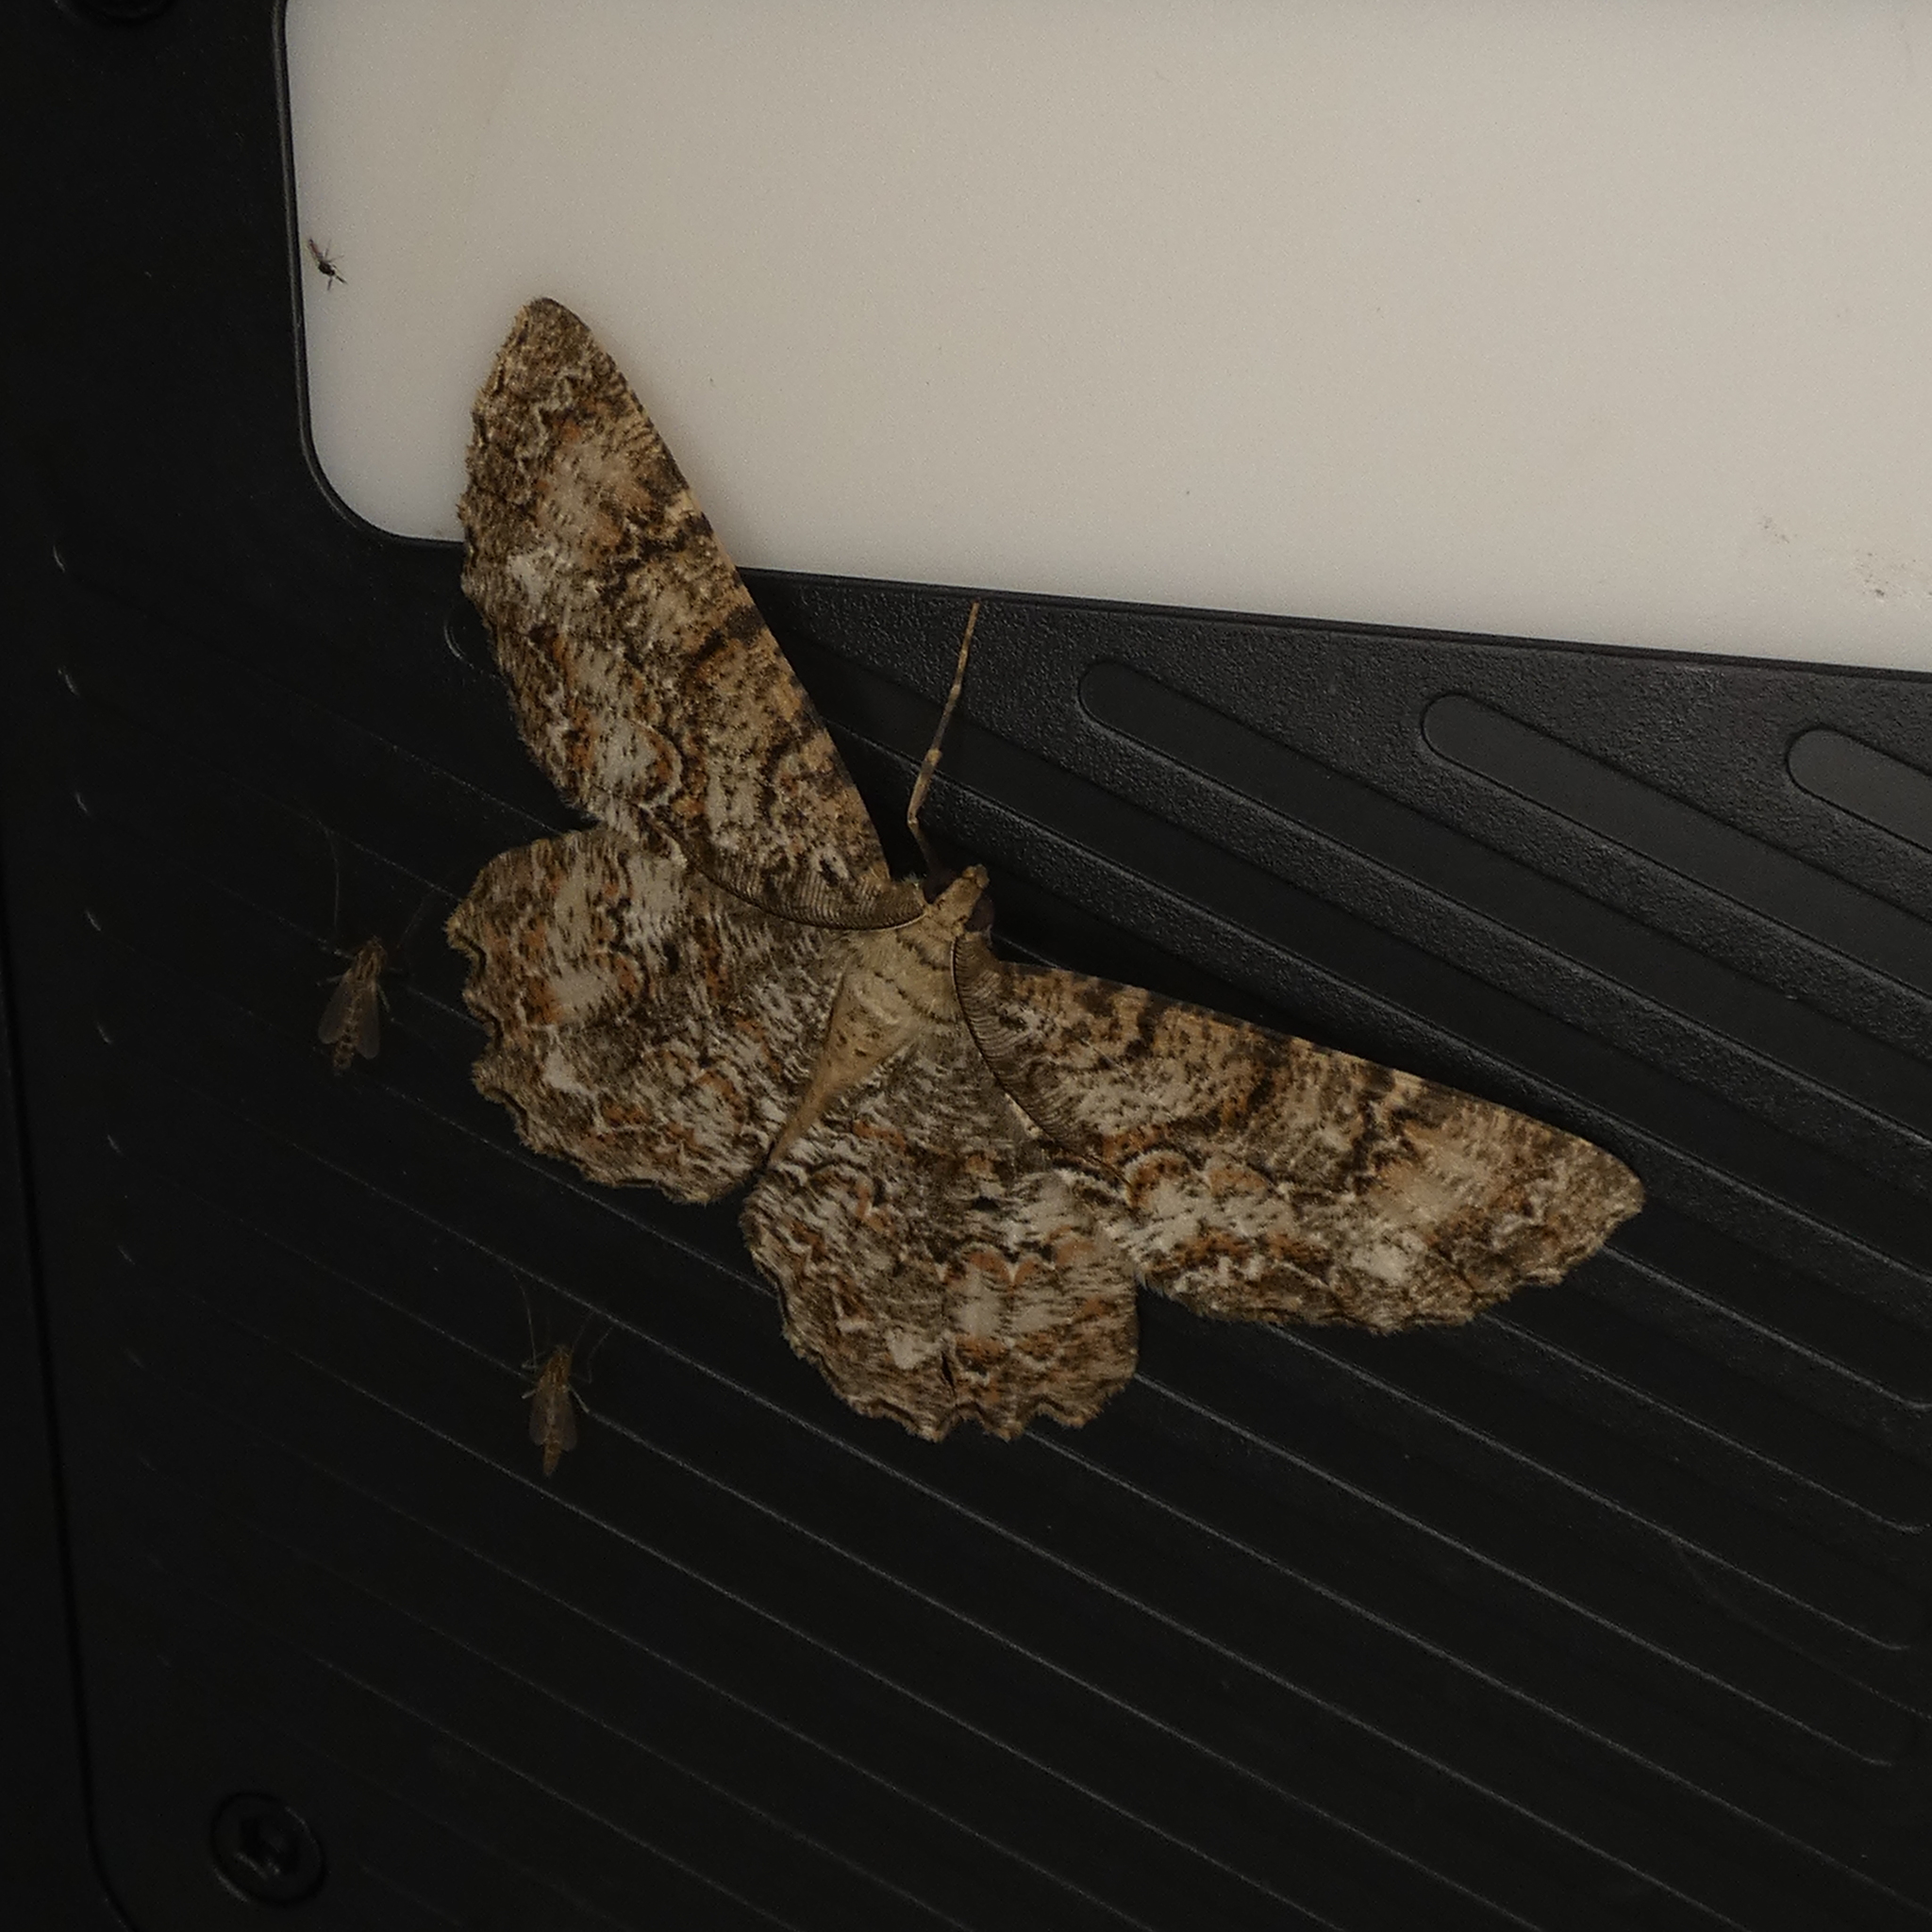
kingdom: Animalia
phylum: Arthropoda
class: Insecta
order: Lepidoptera
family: Geometridae
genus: Epimecis
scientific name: Epimecis hortaria
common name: Tulip-tree beauty
